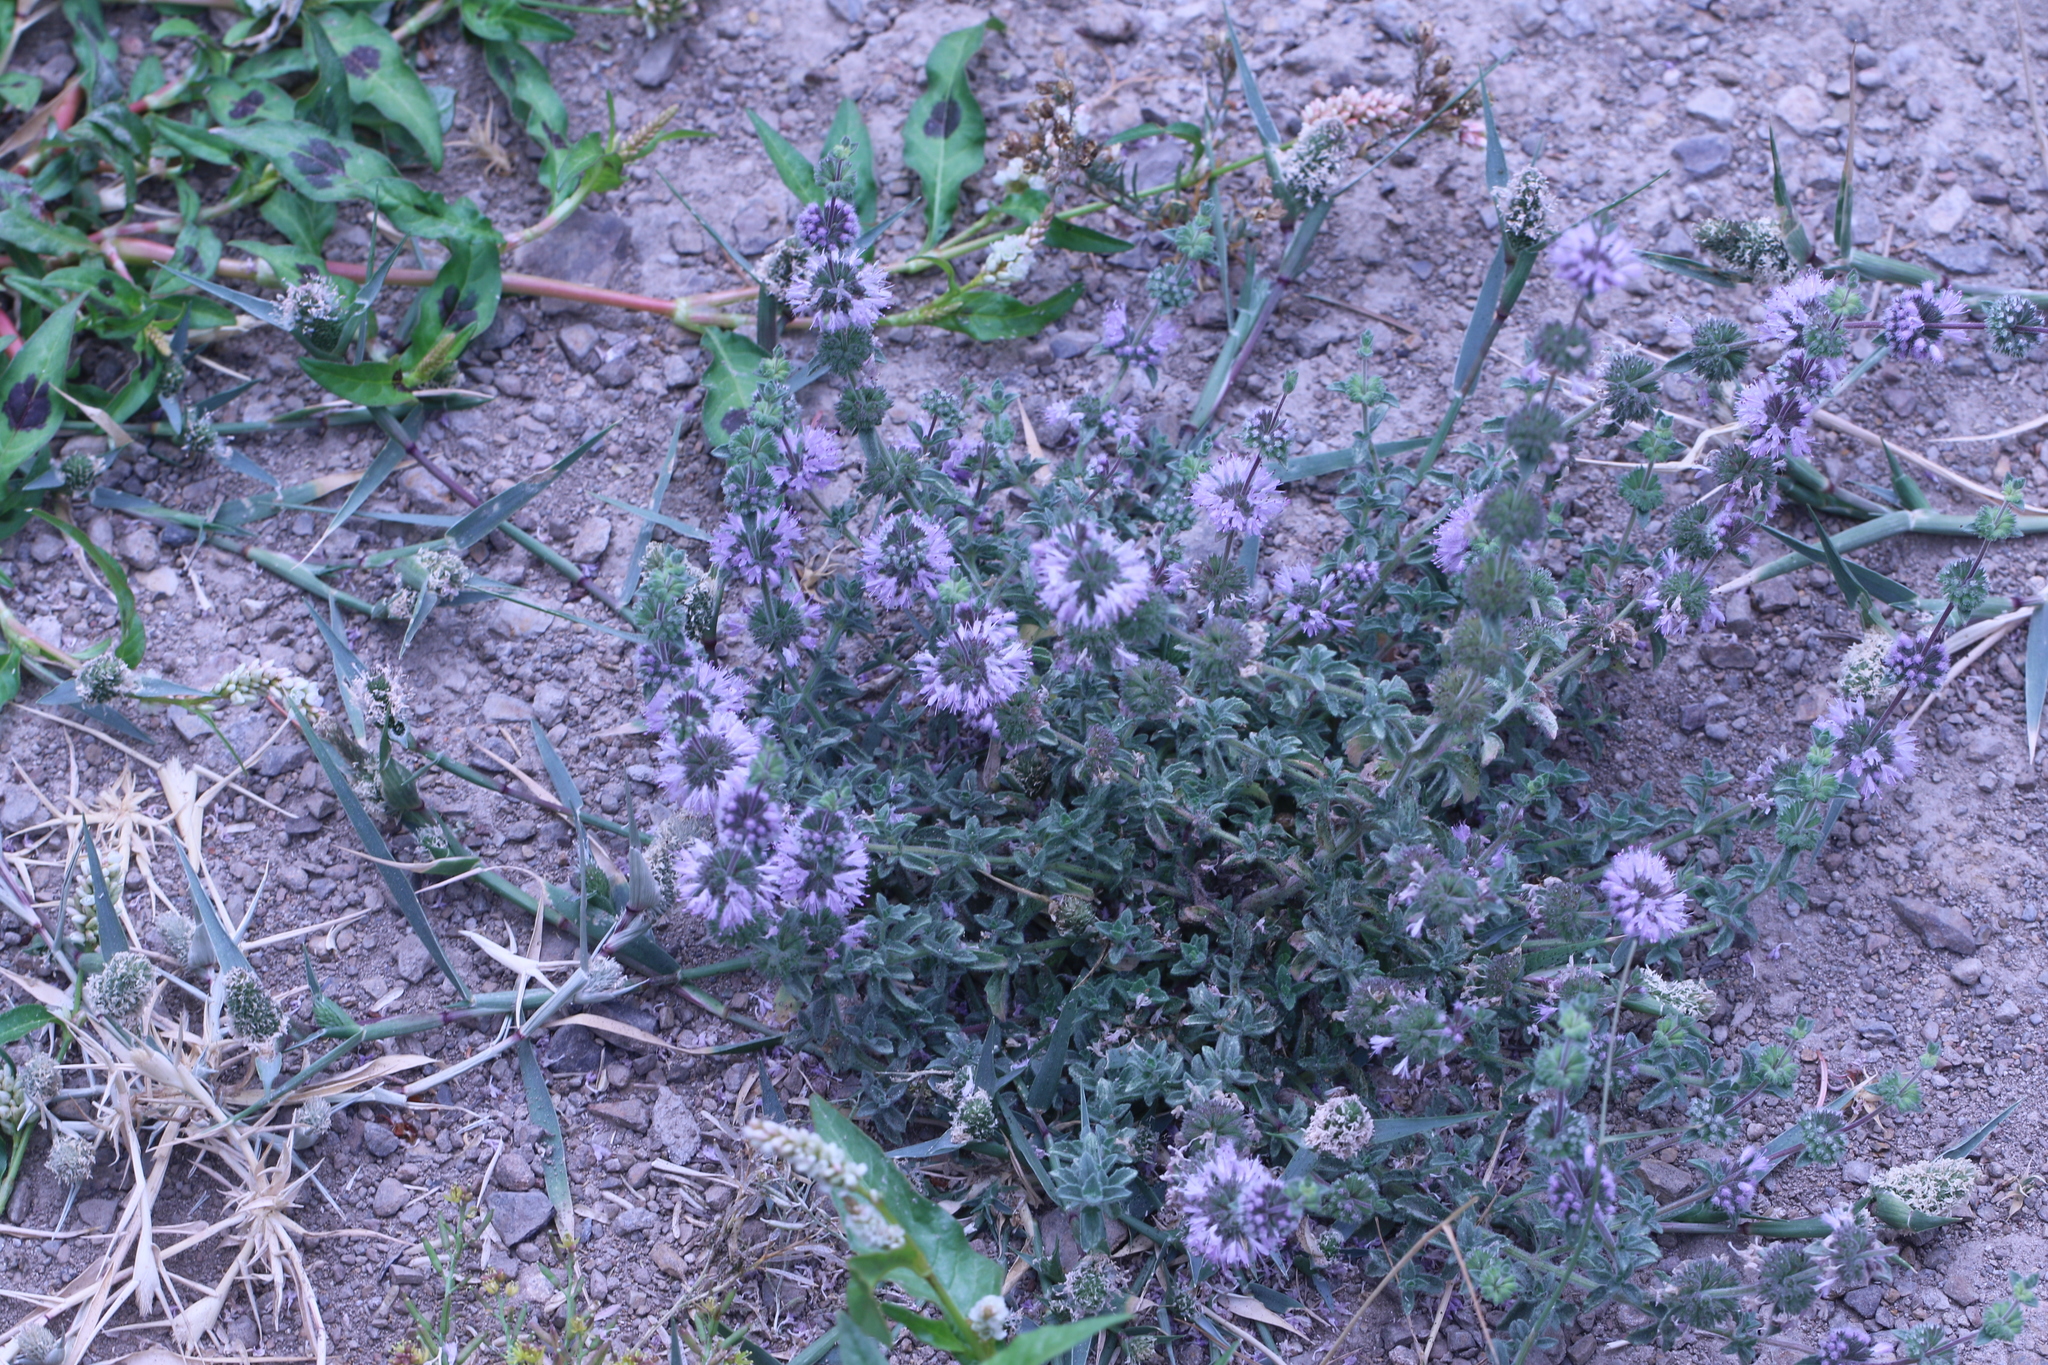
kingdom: Plantae
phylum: Tracheophyta
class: Magnoliopsida
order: Lamiales
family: Lamiaceae
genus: Mentha
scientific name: Mentha pulegium
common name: Pennyroyal
